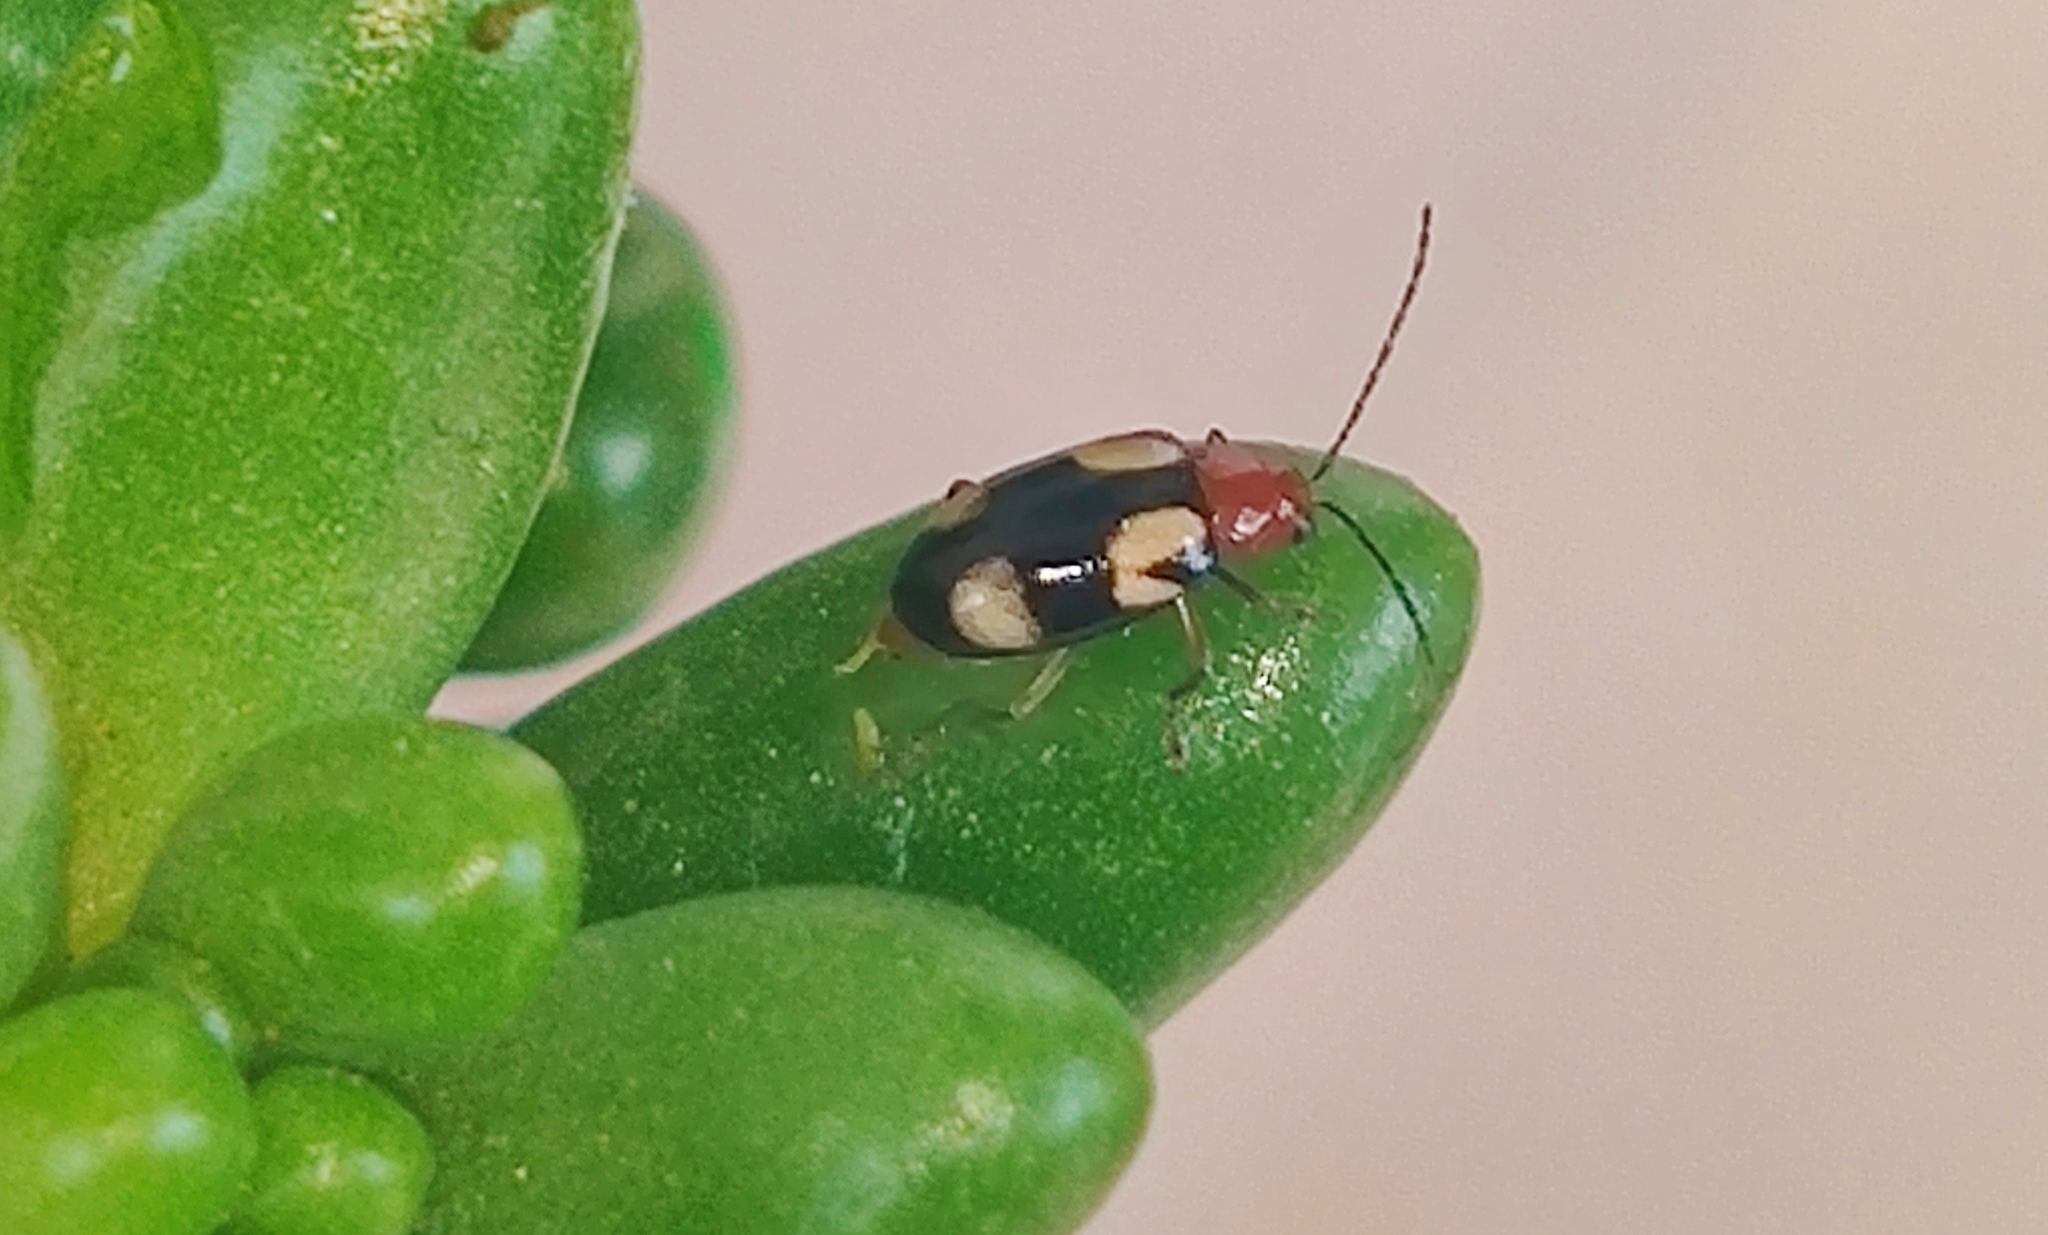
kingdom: Animalia
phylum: Arthropoda
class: Insecta
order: Coleoptera
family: Chrysomelidae
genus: Monolepta
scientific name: Monolepta signata
